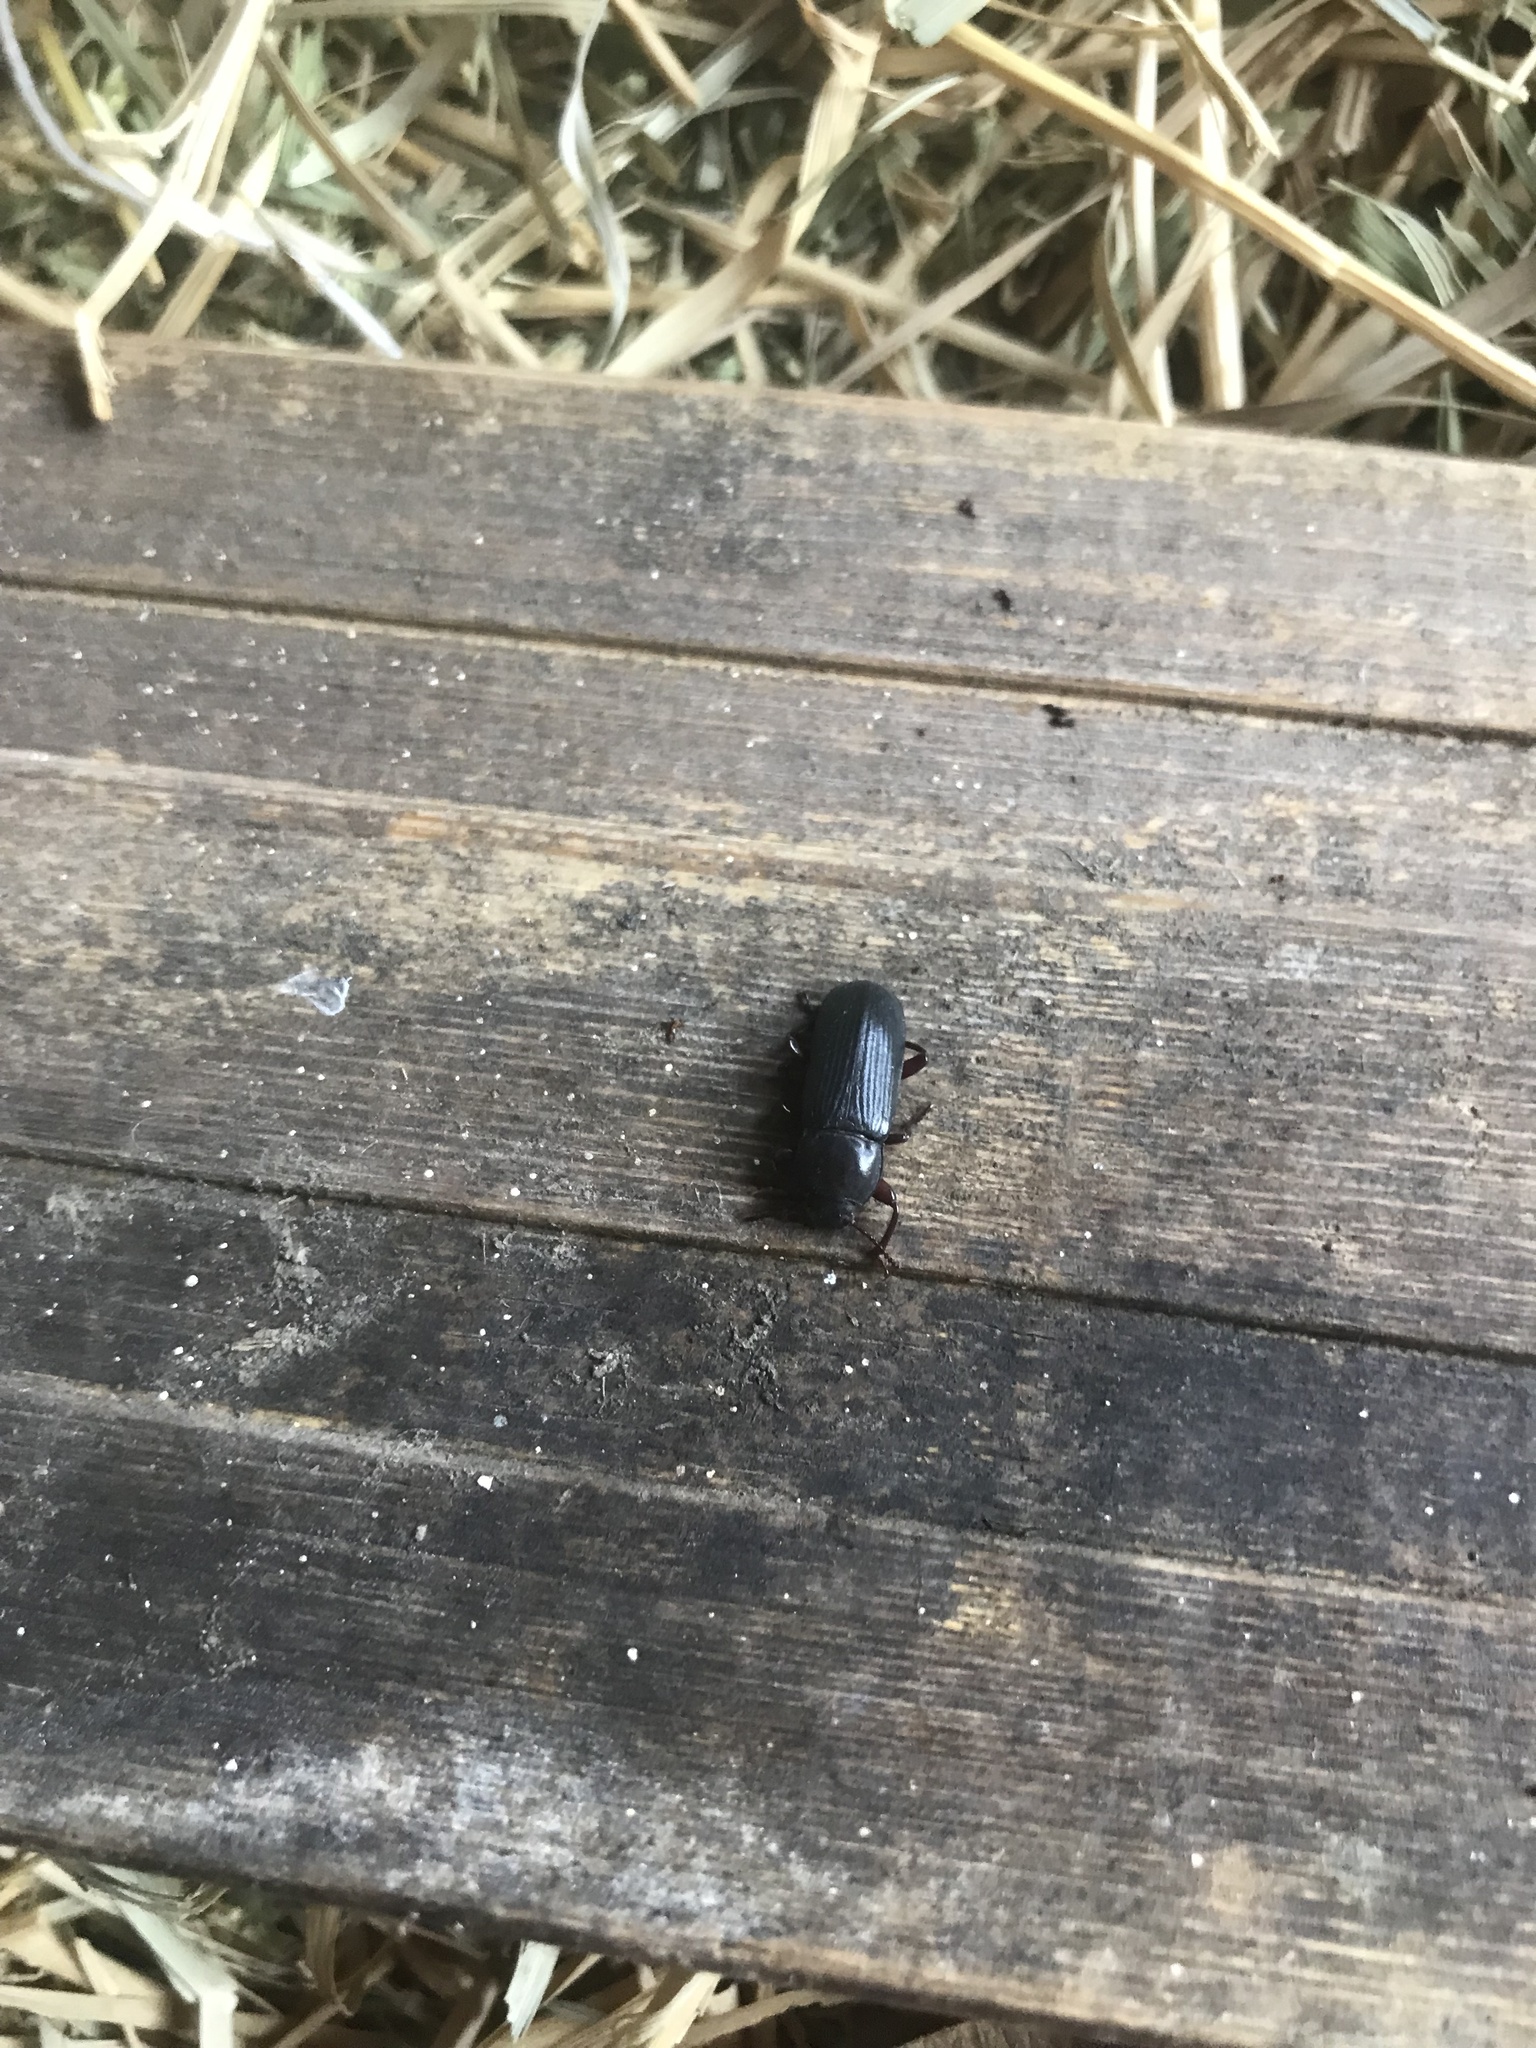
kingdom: Animalia
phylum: Arthropoda
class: Insecta
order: Coleoptera
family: Tenebrionidae
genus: Tenebrio
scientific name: Tenebrio molitor
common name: Hardback beetle
